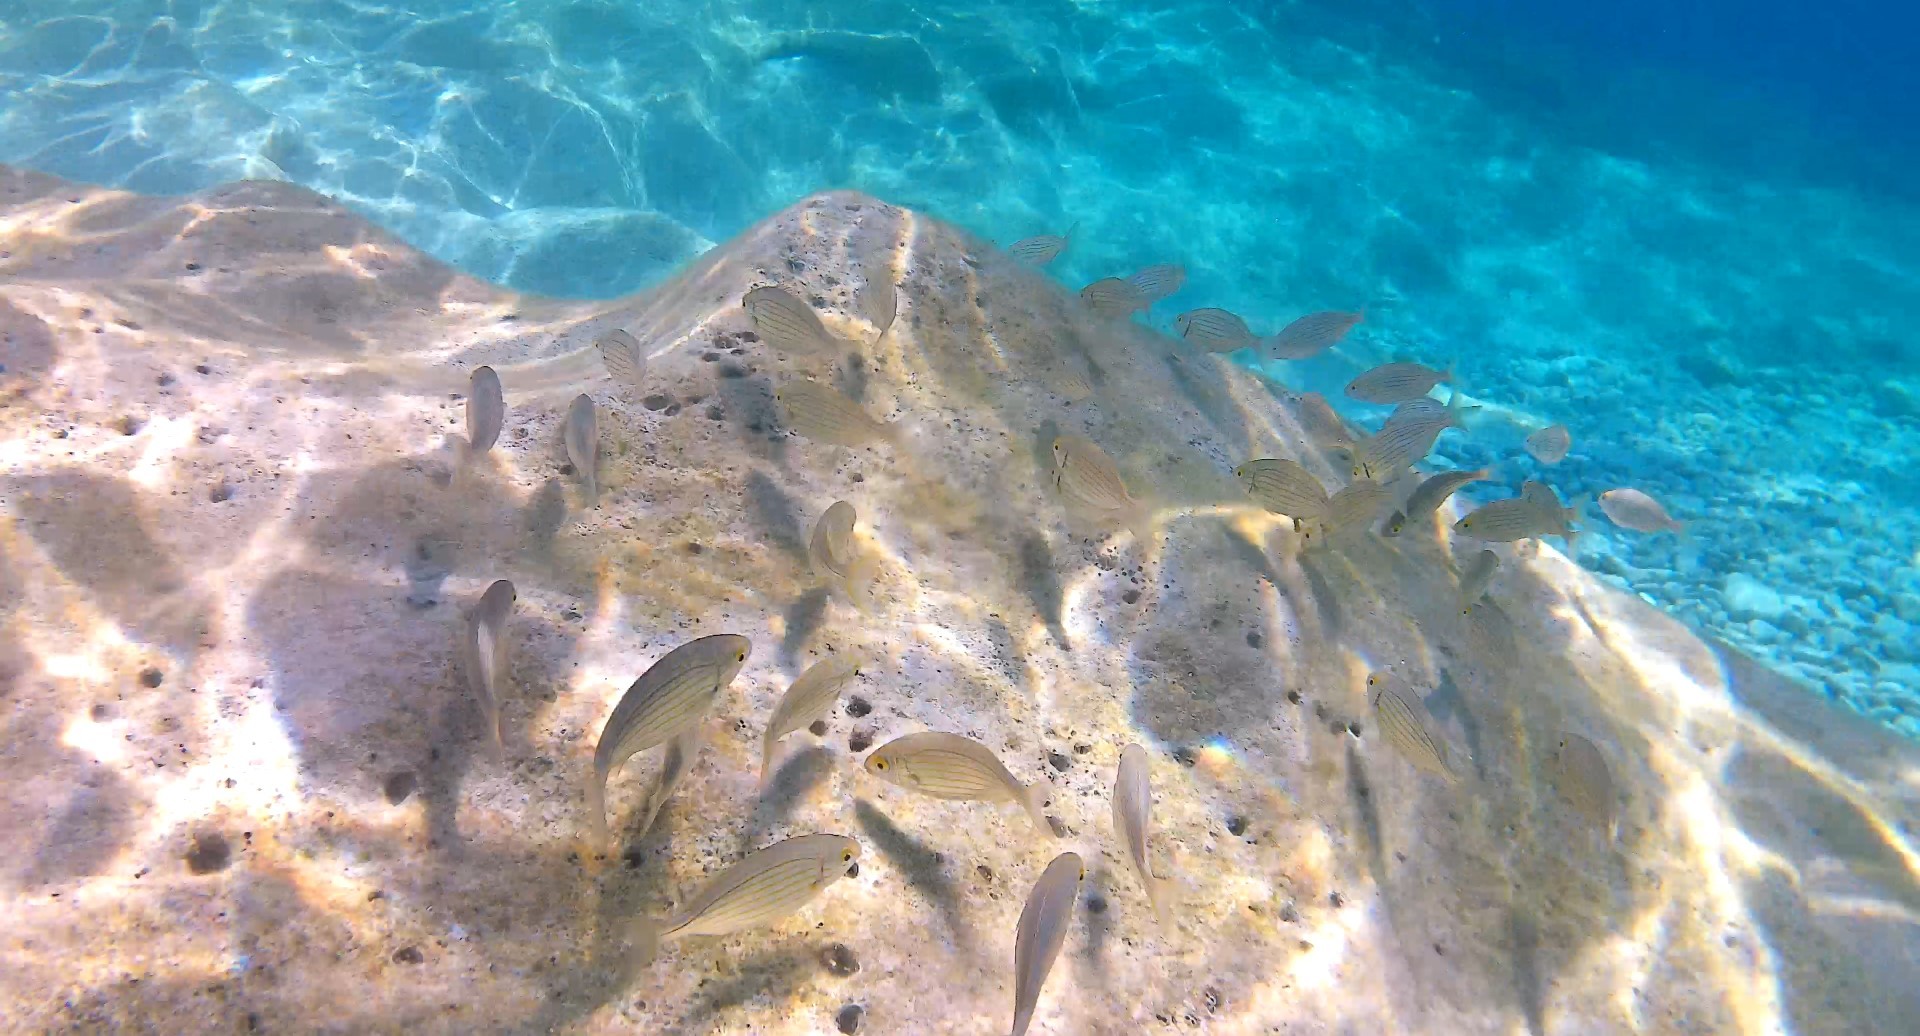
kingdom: Animalia
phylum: Chordata
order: Perciformes
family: Sparidae
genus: Sarpa
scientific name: Sarpa salpa
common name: Salema
